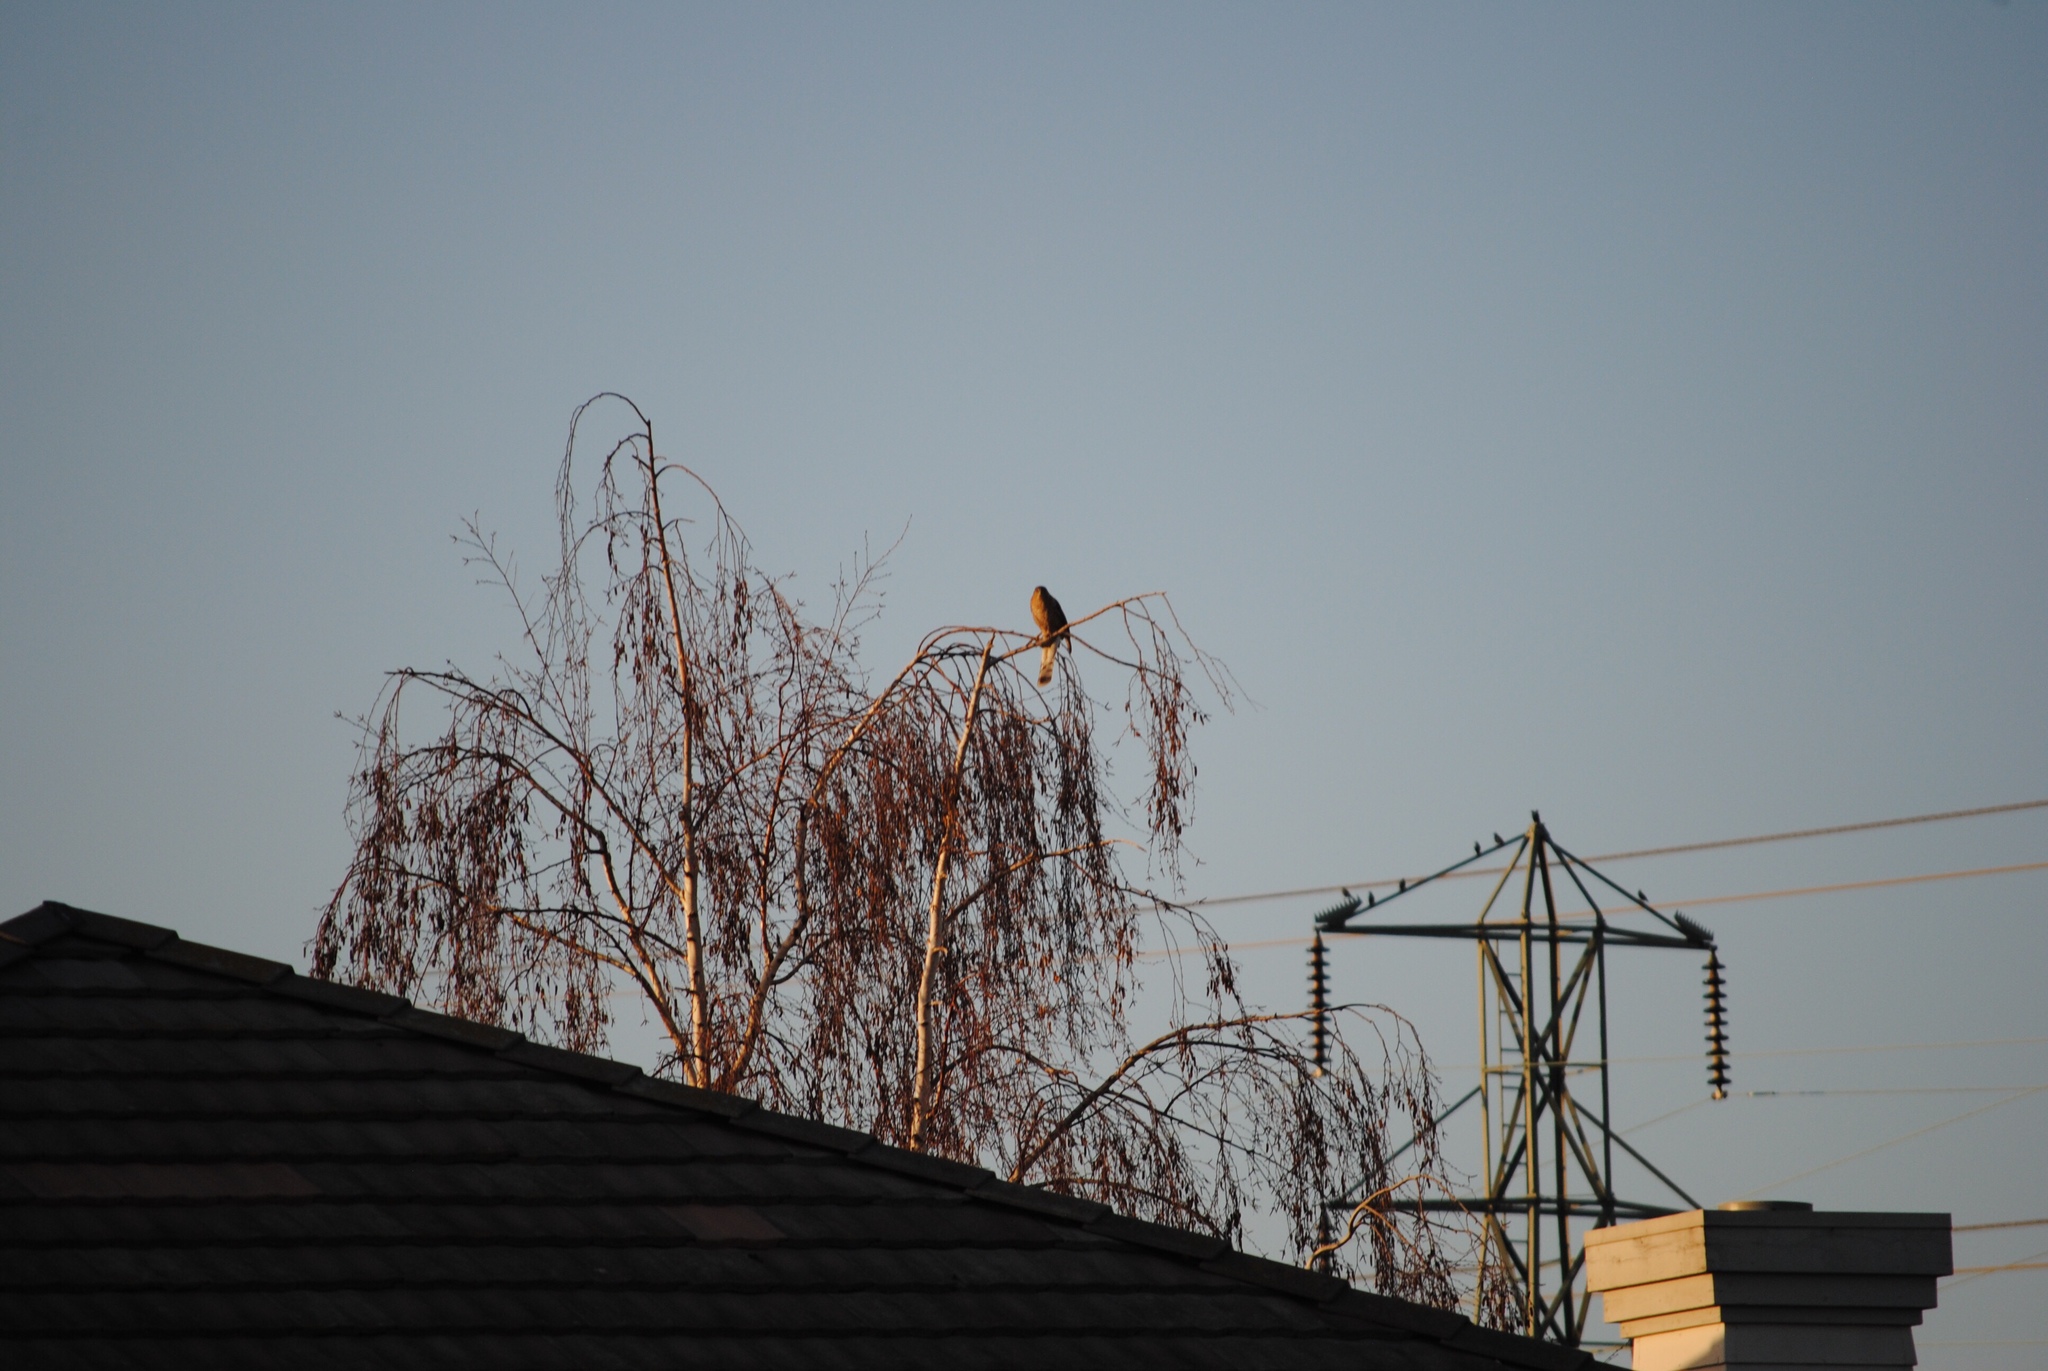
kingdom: Animalia
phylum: Chordata
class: Aves
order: Accipitriformes
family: Accipitridae
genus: Accipiter
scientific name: Accipiter cooperii
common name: Cooper's hawk
